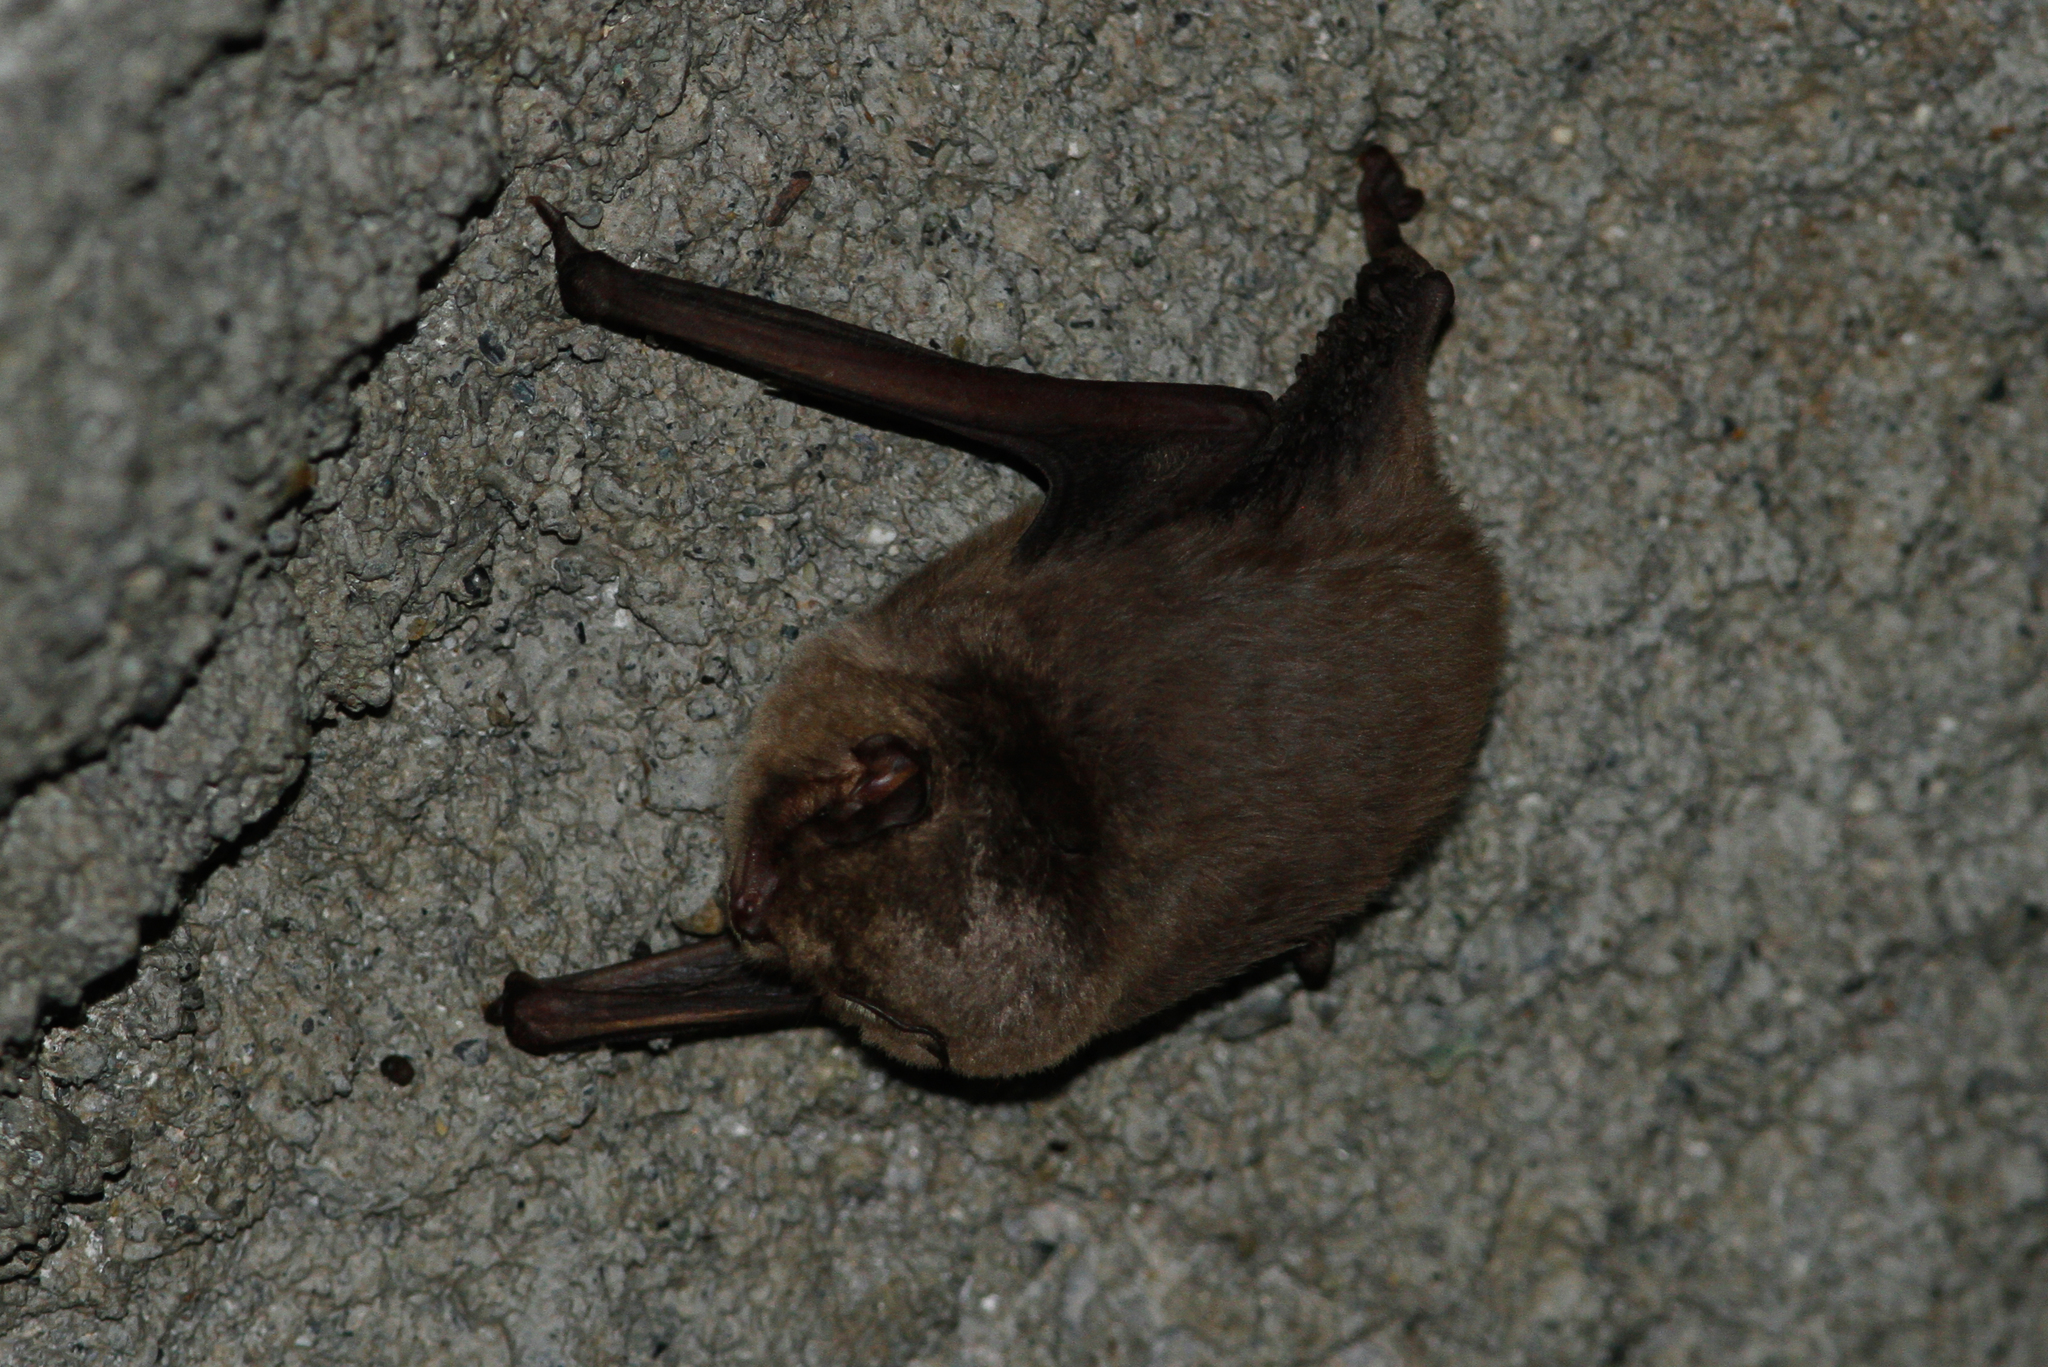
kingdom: Animalia
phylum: Chordata
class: Mammalia
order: Chiroptera
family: Miniopteridae
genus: Miniopterus
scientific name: Miniopterus schreibersii
